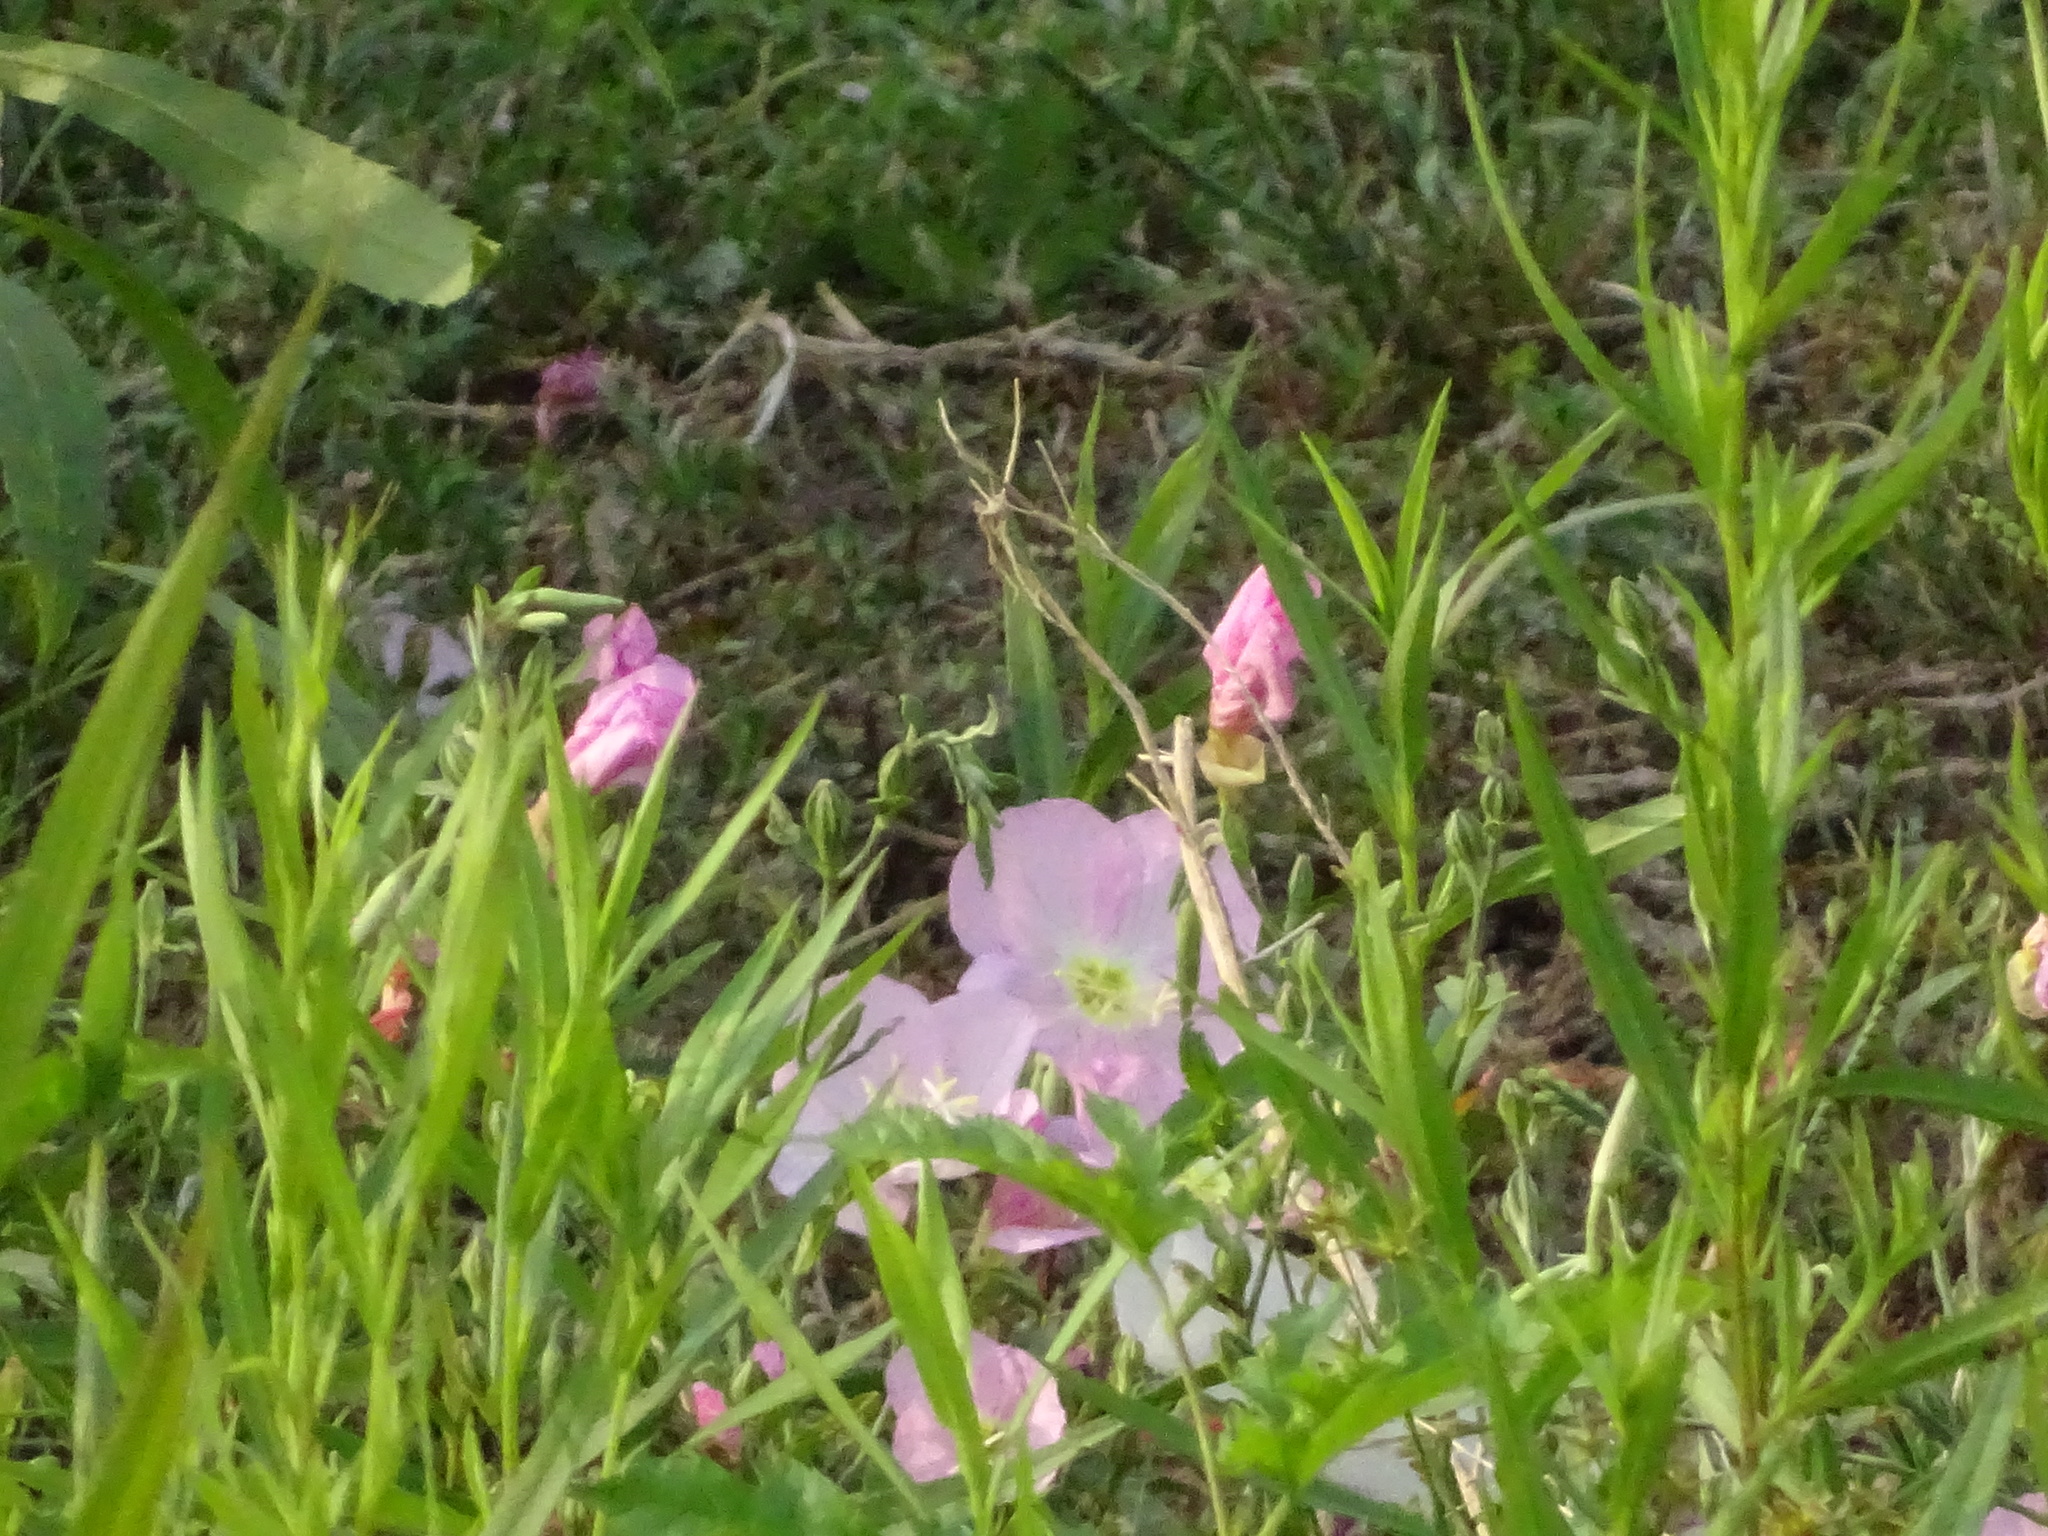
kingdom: Plantae
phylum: Tracheophyta
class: Magnoliopsida
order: Myrtales
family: Onagraceae
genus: Oenothera
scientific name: Oenothera speciosa
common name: White evening-primrose
